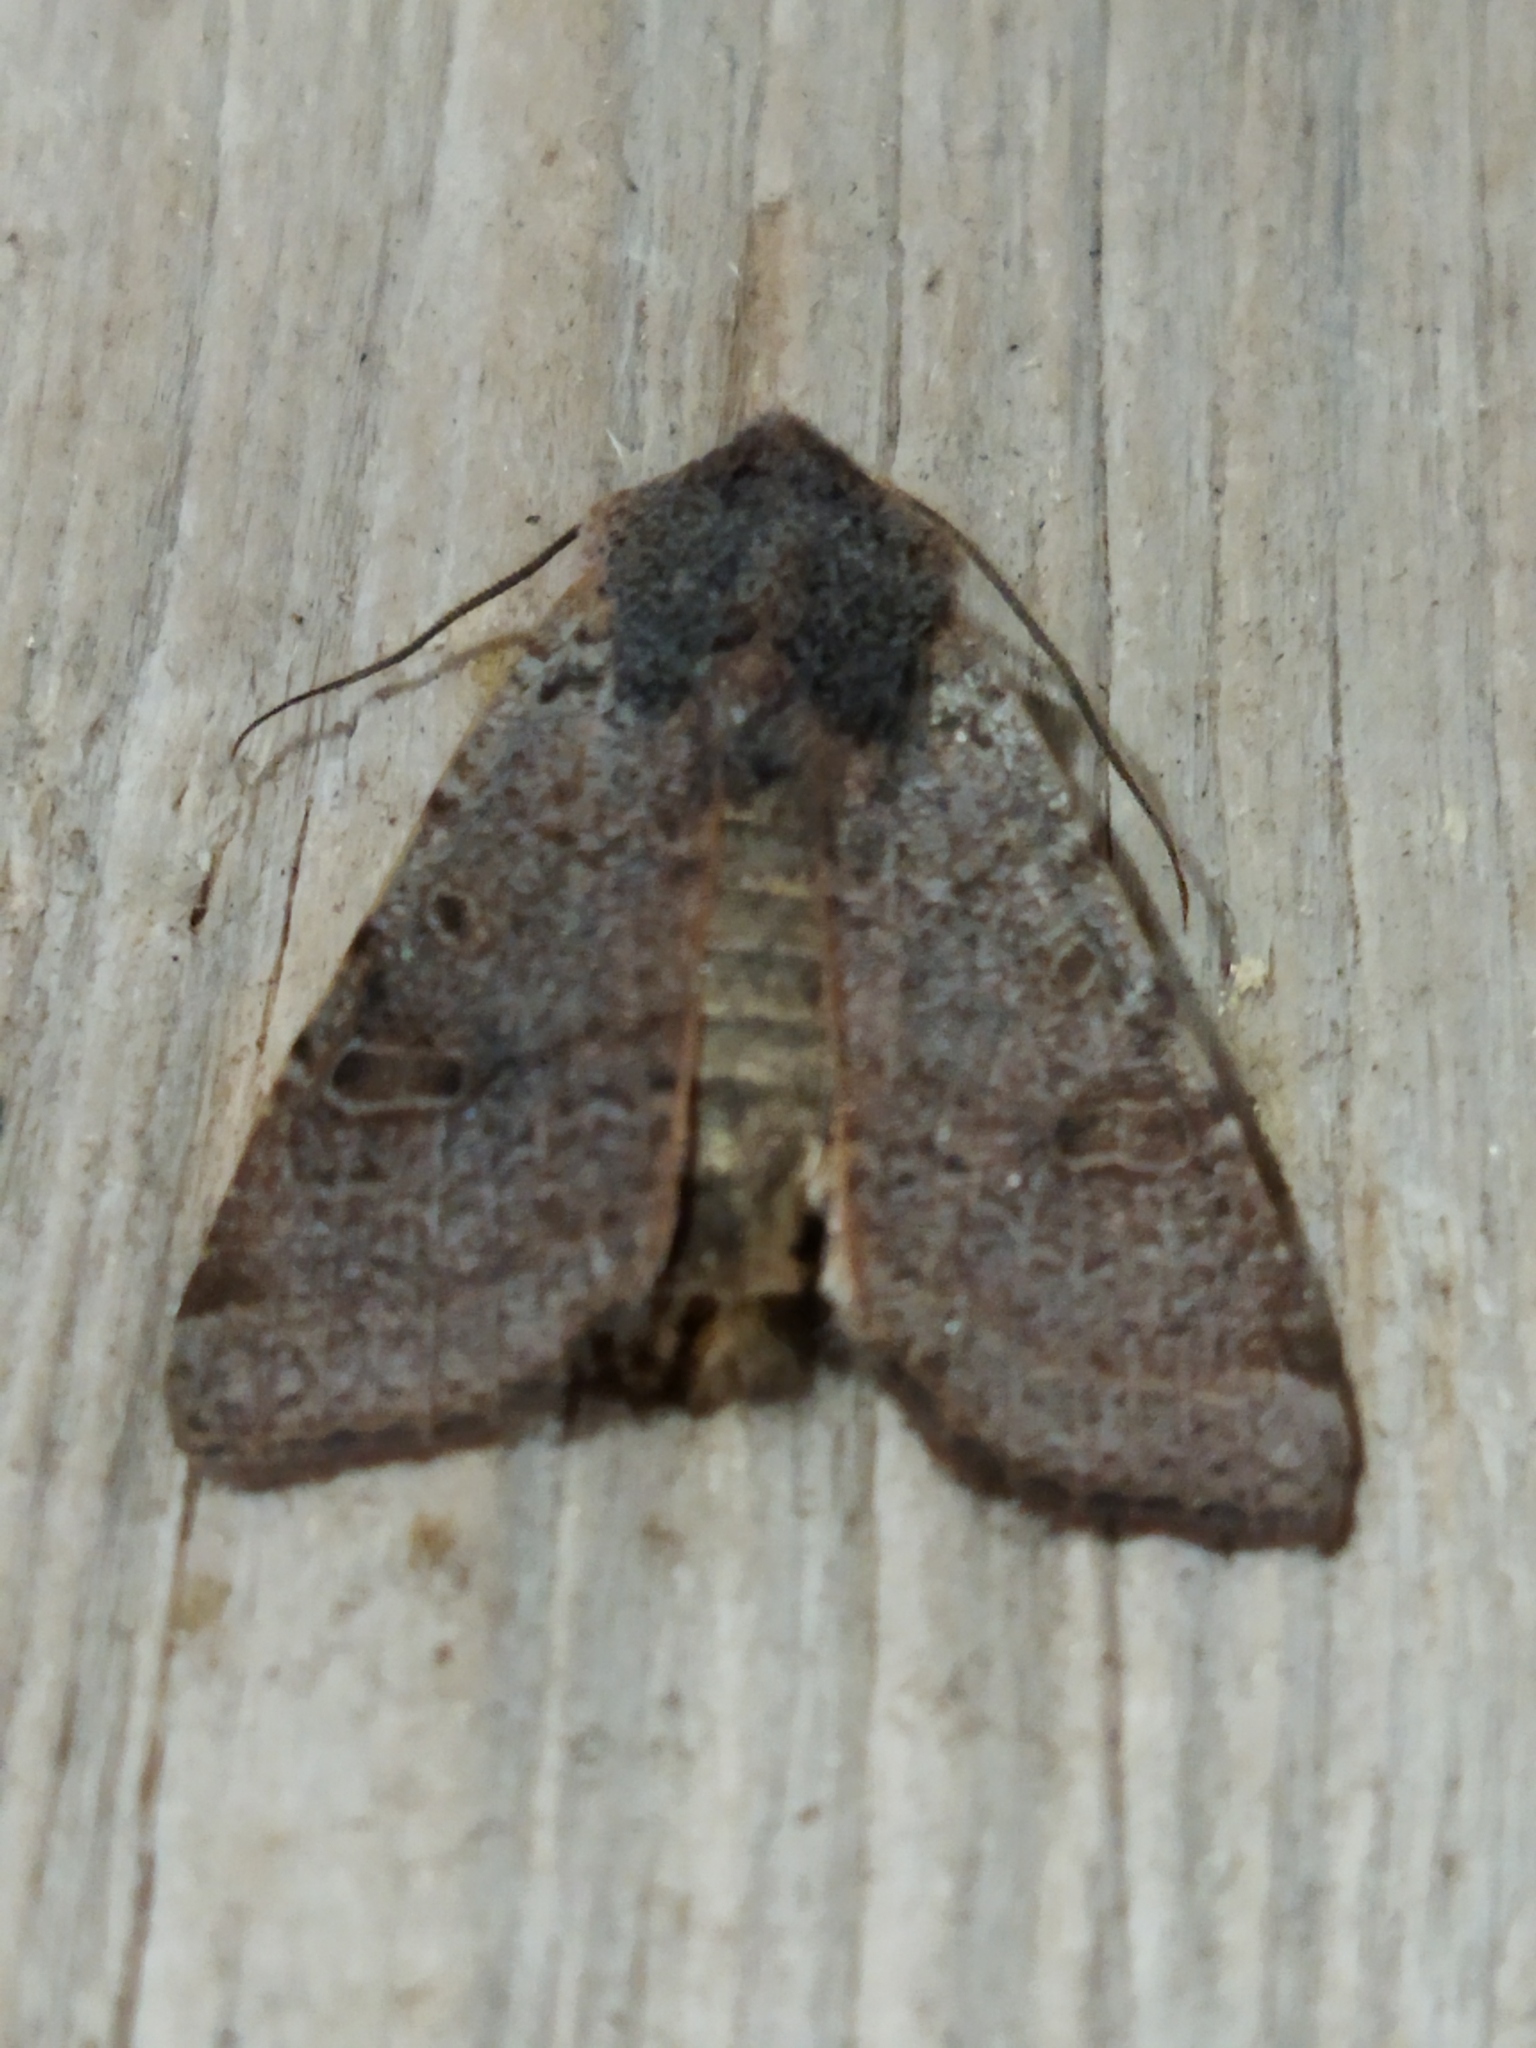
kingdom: Animalia
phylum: Arthropoda
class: Insecta
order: Lepidoptera
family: Noctuidae
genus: Agrochola
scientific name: Agrochola lychnidis
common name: Beaded chestnut
